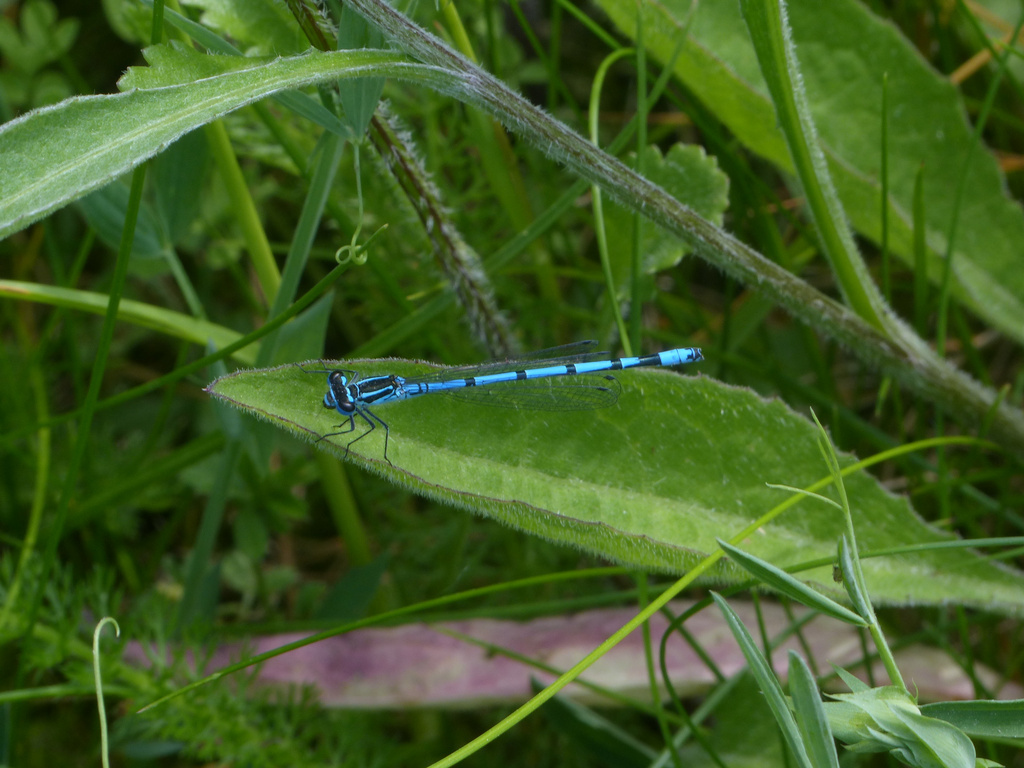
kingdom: Animalia
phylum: Arthropoda
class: Insecta
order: Odonata
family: Coenagrionidae
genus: Coenagrion
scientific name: Coenagrion puella
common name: Azure damselfly
